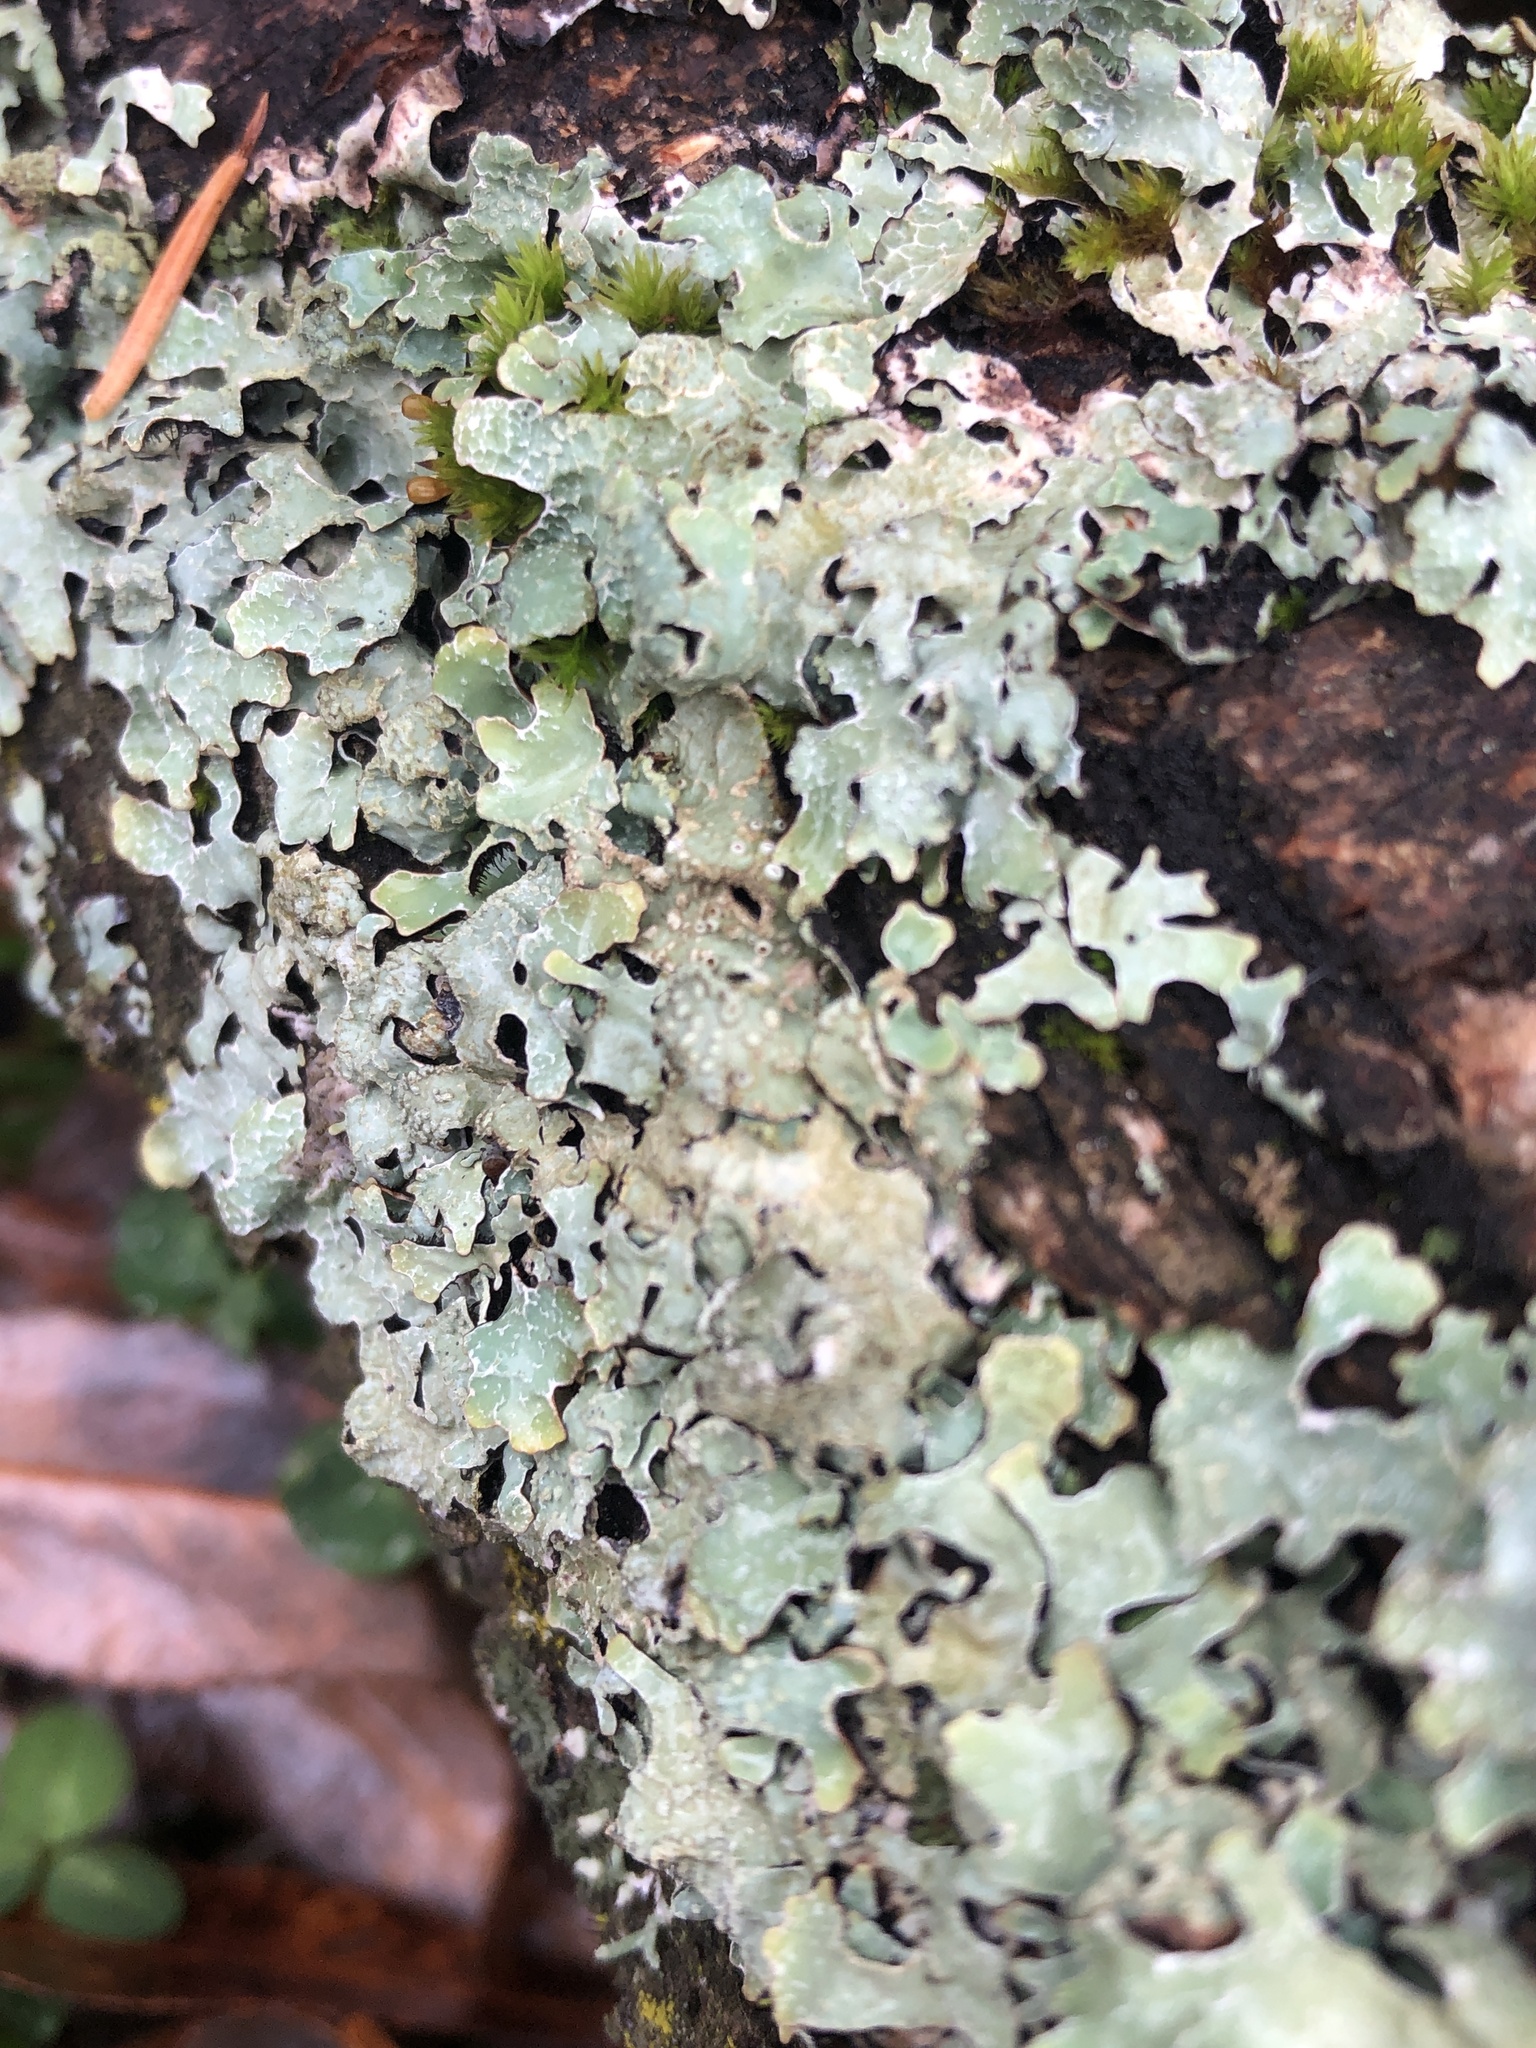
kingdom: Fungi
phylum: Ascomycota
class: Lecanoromycetes
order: Lecanorales
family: Parmeliaceae
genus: Parmelia
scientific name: Parmelia sulcata
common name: Netted shield lichen
